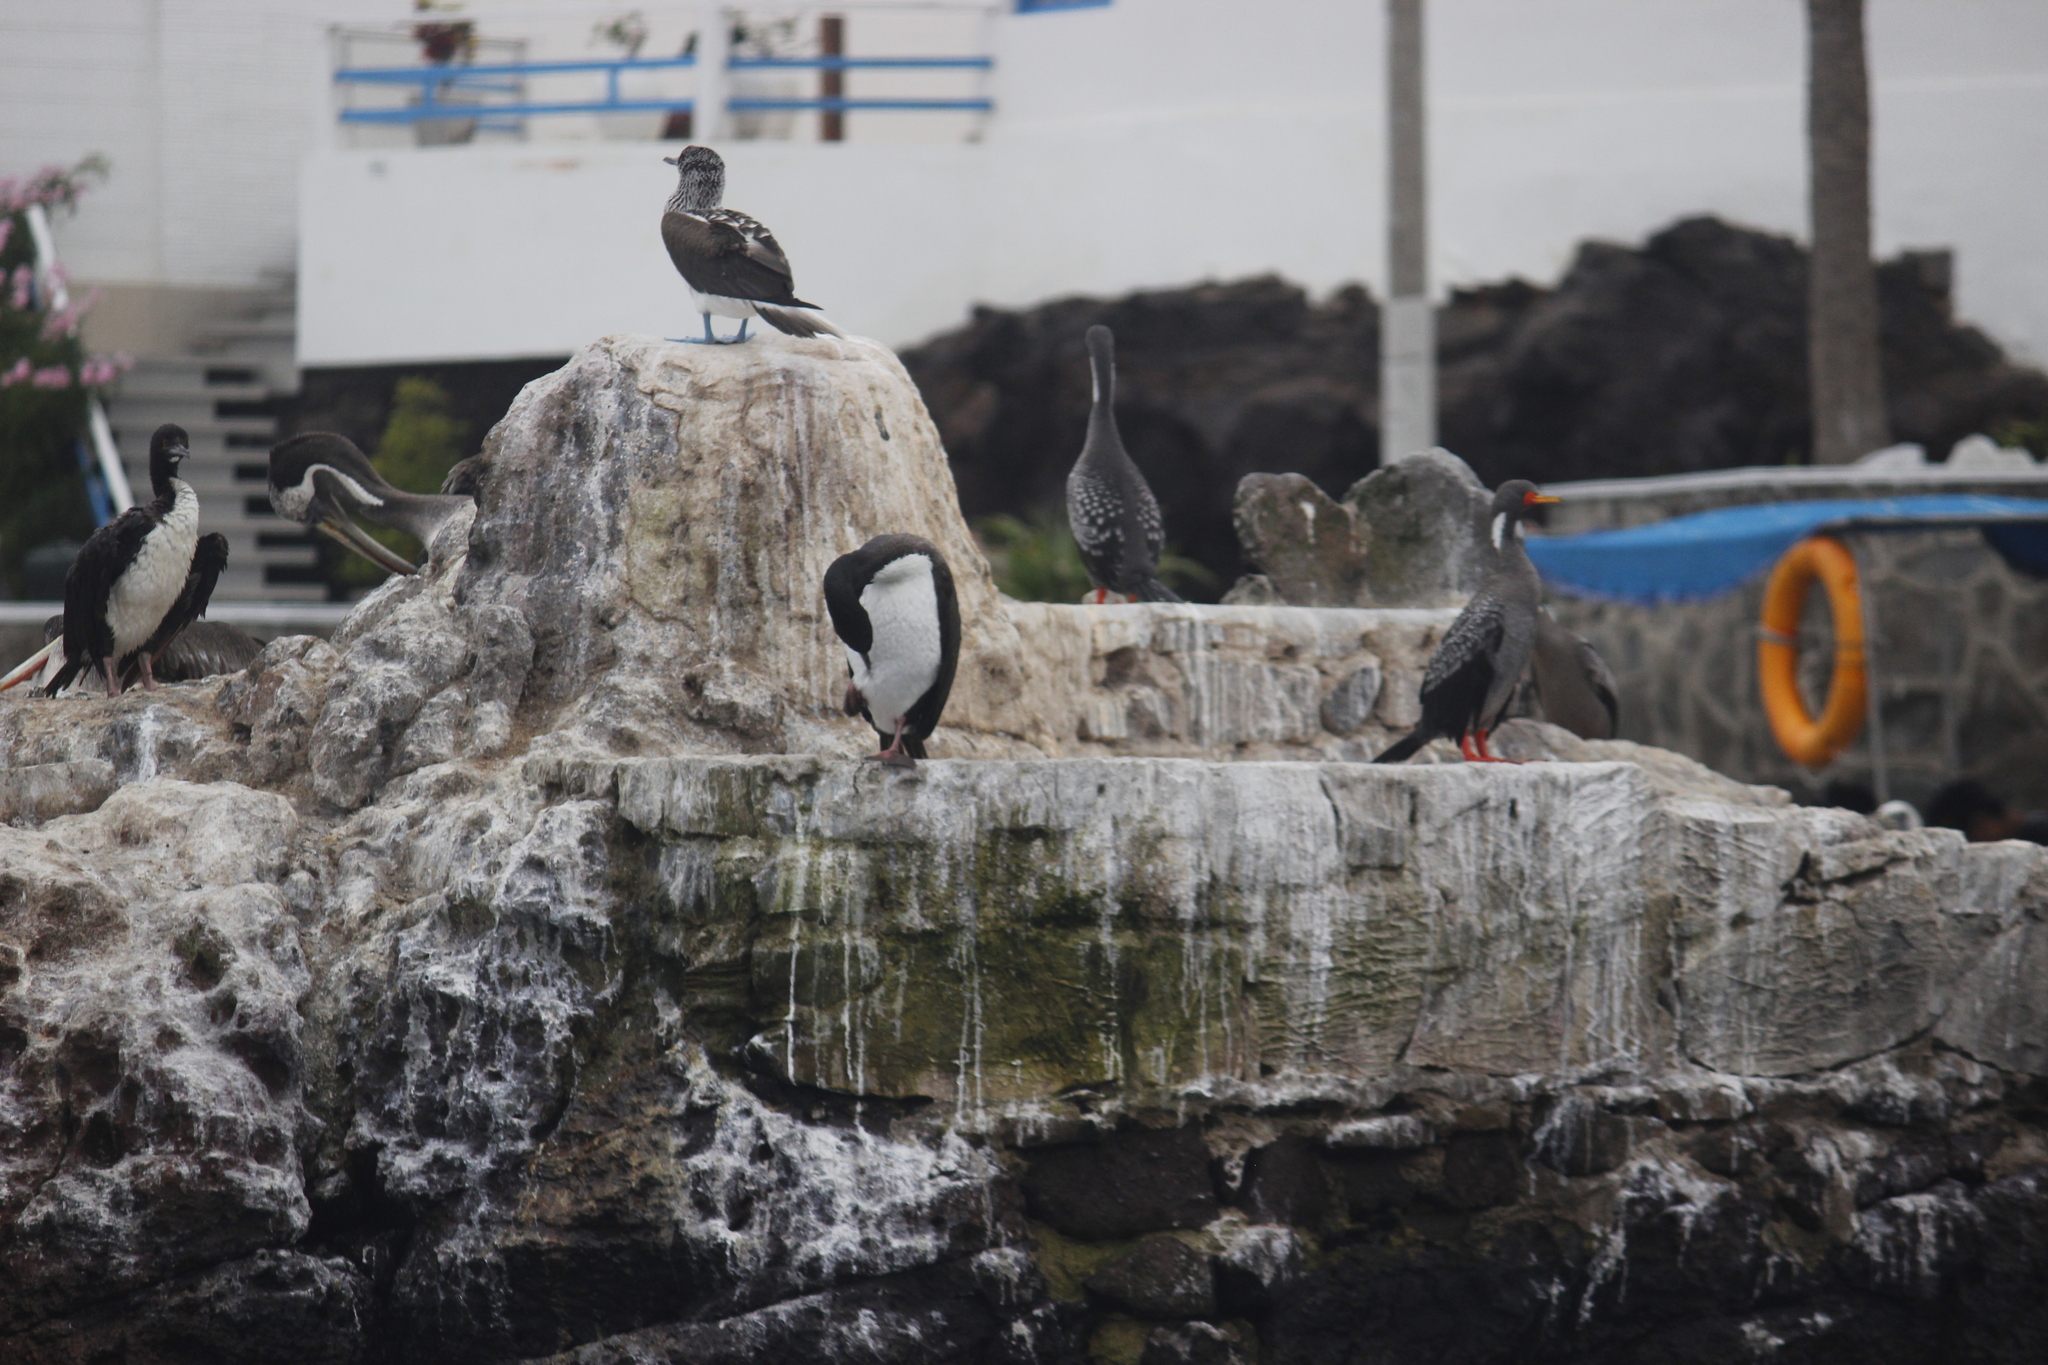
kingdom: Animalia
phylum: Chordata
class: Aves
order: Suliformes
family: Phalacrocoracidae
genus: Leucocarbo
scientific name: Leucocarbo bougainvillii
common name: Guanay cormorant
